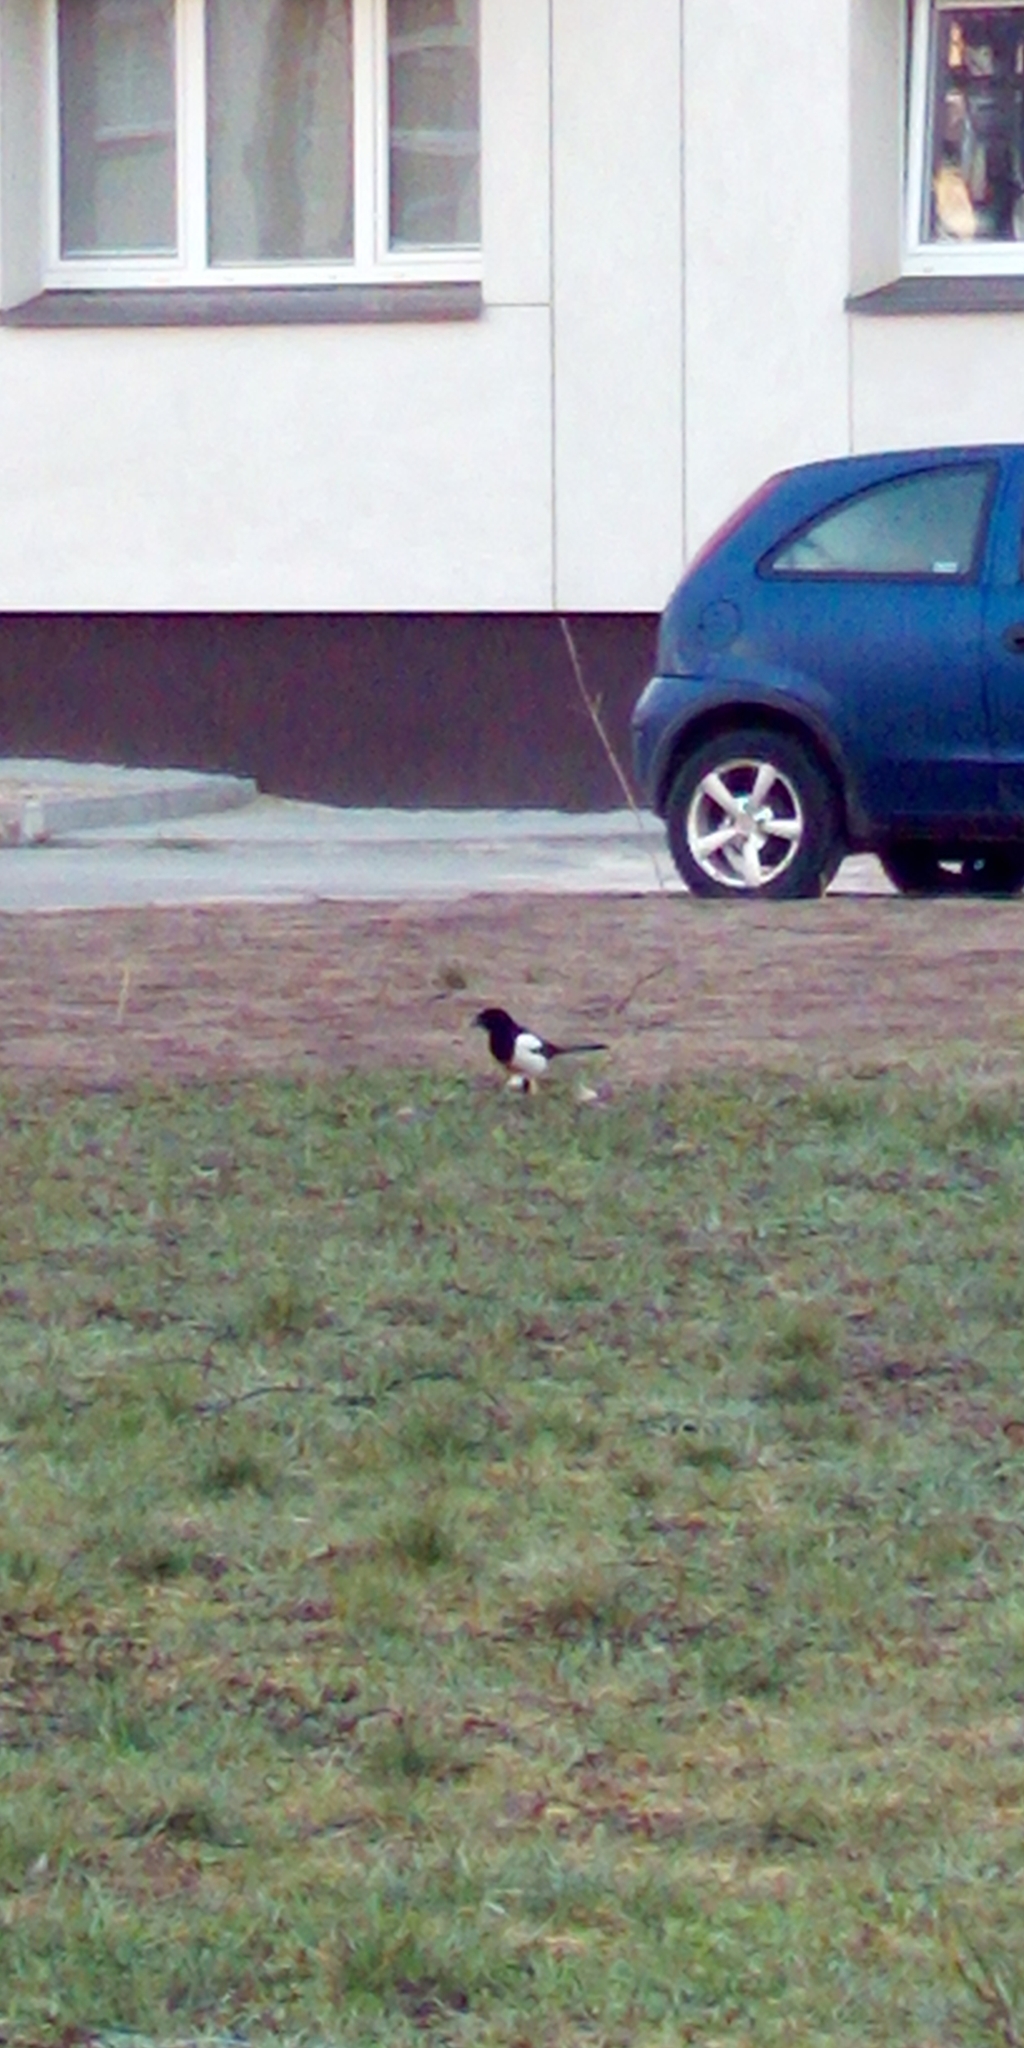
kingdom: Animalia
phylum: Chordata
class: Aves
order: Passeriformes
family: Corvidae
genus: Pica
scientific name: Pica pica
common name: Eurasian magpie
